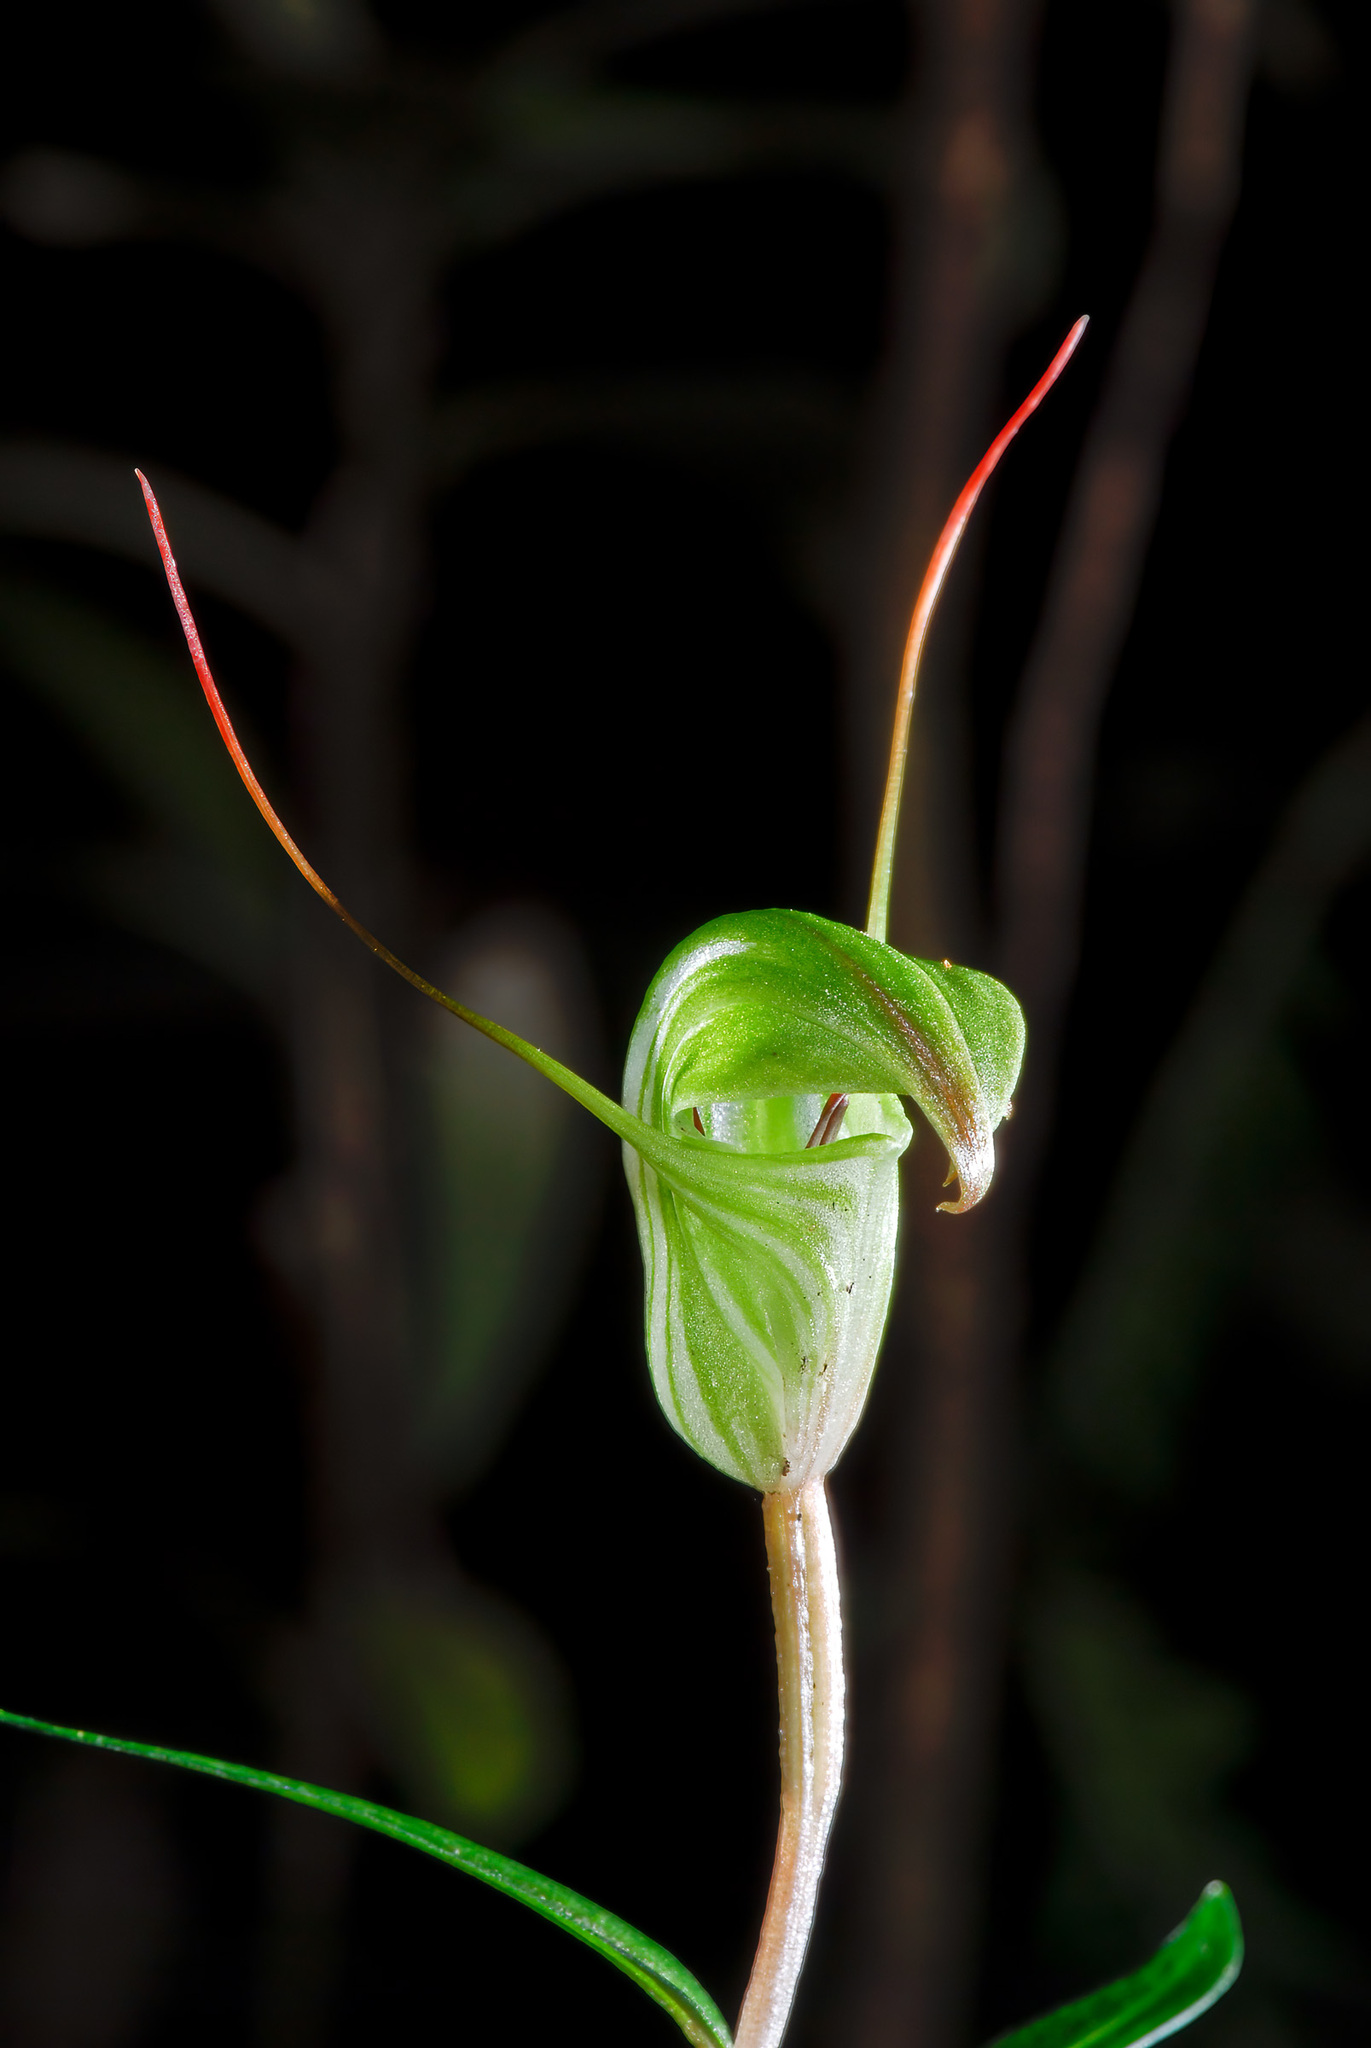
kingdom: Plantae
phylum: Tracheophyta
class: Liliopsida
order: Asparagales
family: Orchidaceae
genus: Pterostylis
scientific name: Pterostylis brumalis
